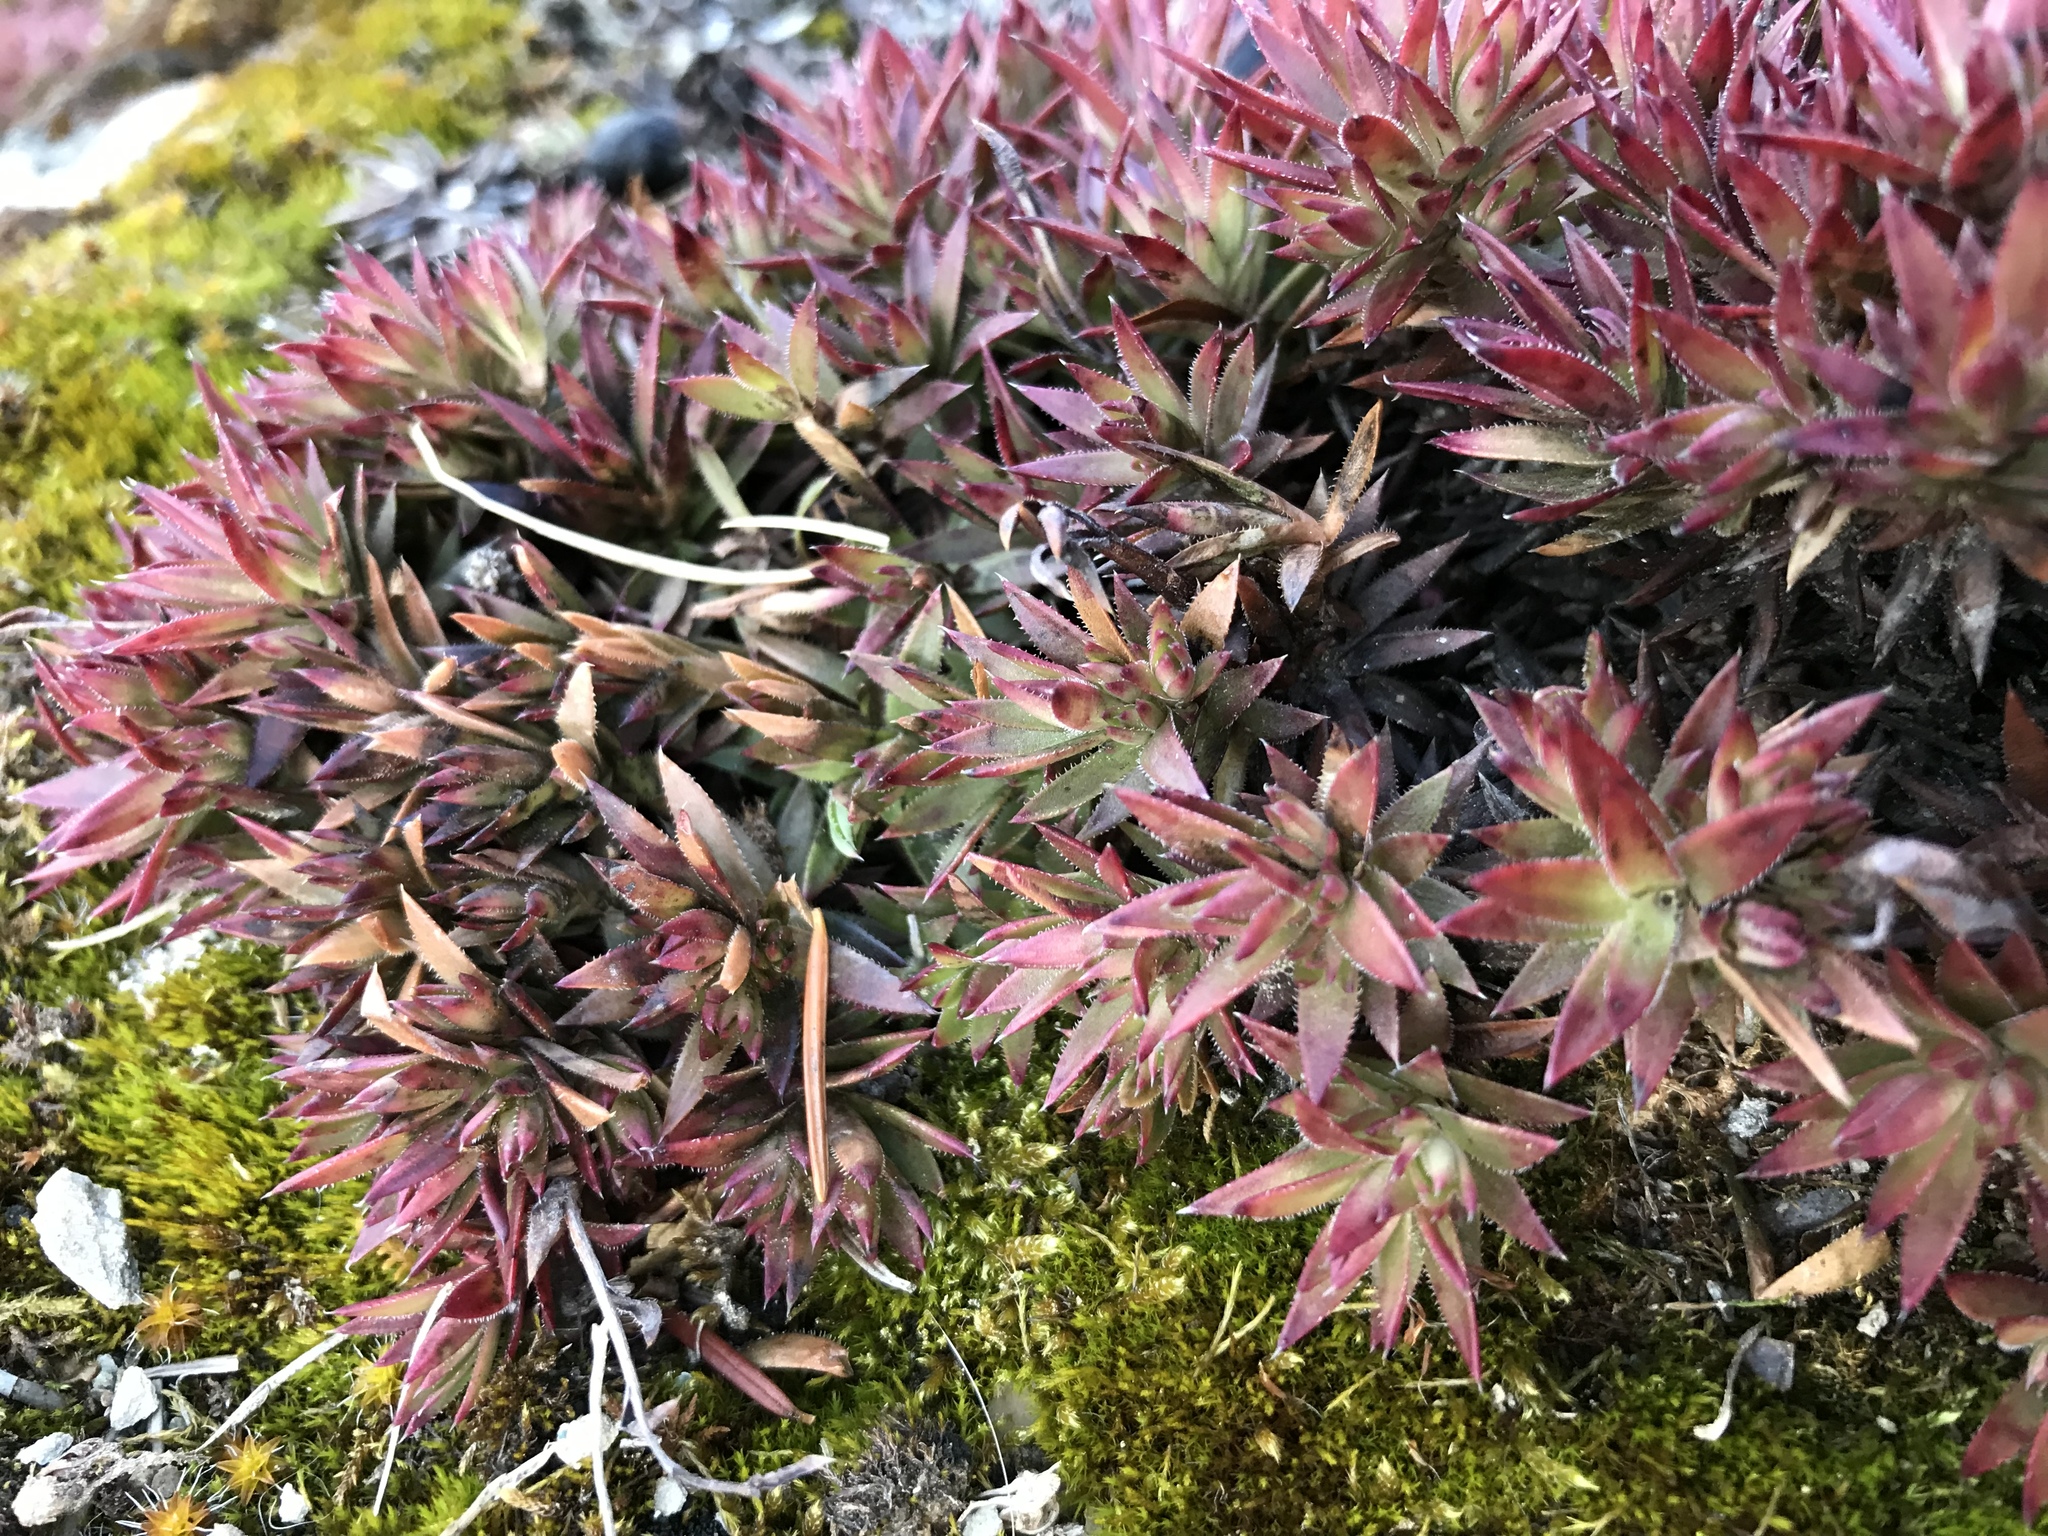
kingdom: Plantae
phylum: Tracheophyta
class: Magnoliopsida
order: Saxifragales
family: Saxifragaceae
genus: Saxifraga
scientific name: Saxifraga bronchialis
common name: Matted saxifrage
